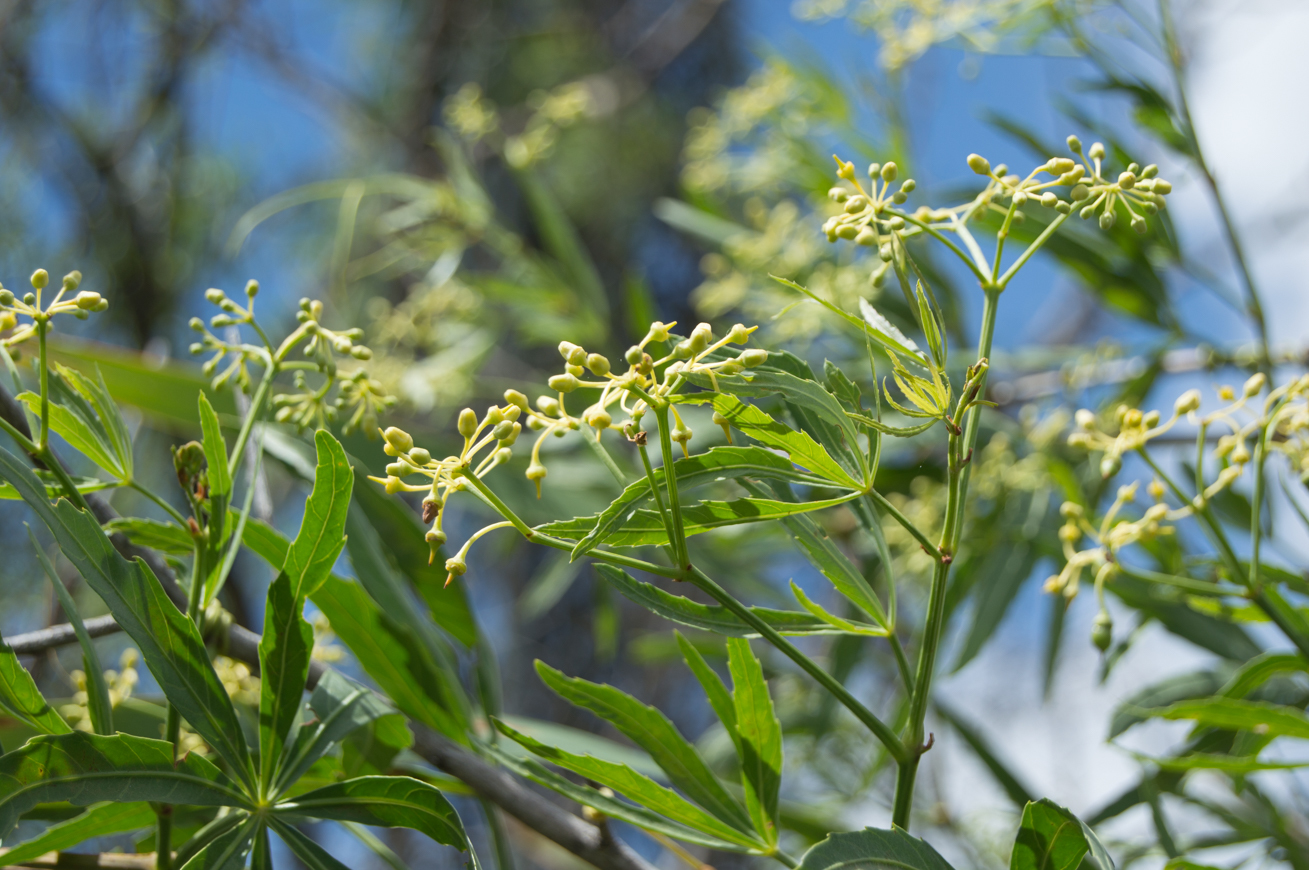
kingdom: Plantae
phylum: Tracheophyta
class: Magnoliopsida
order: Vitales
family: Vitaceae
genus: Cissus
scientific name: Cissus palmata
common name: Grape
